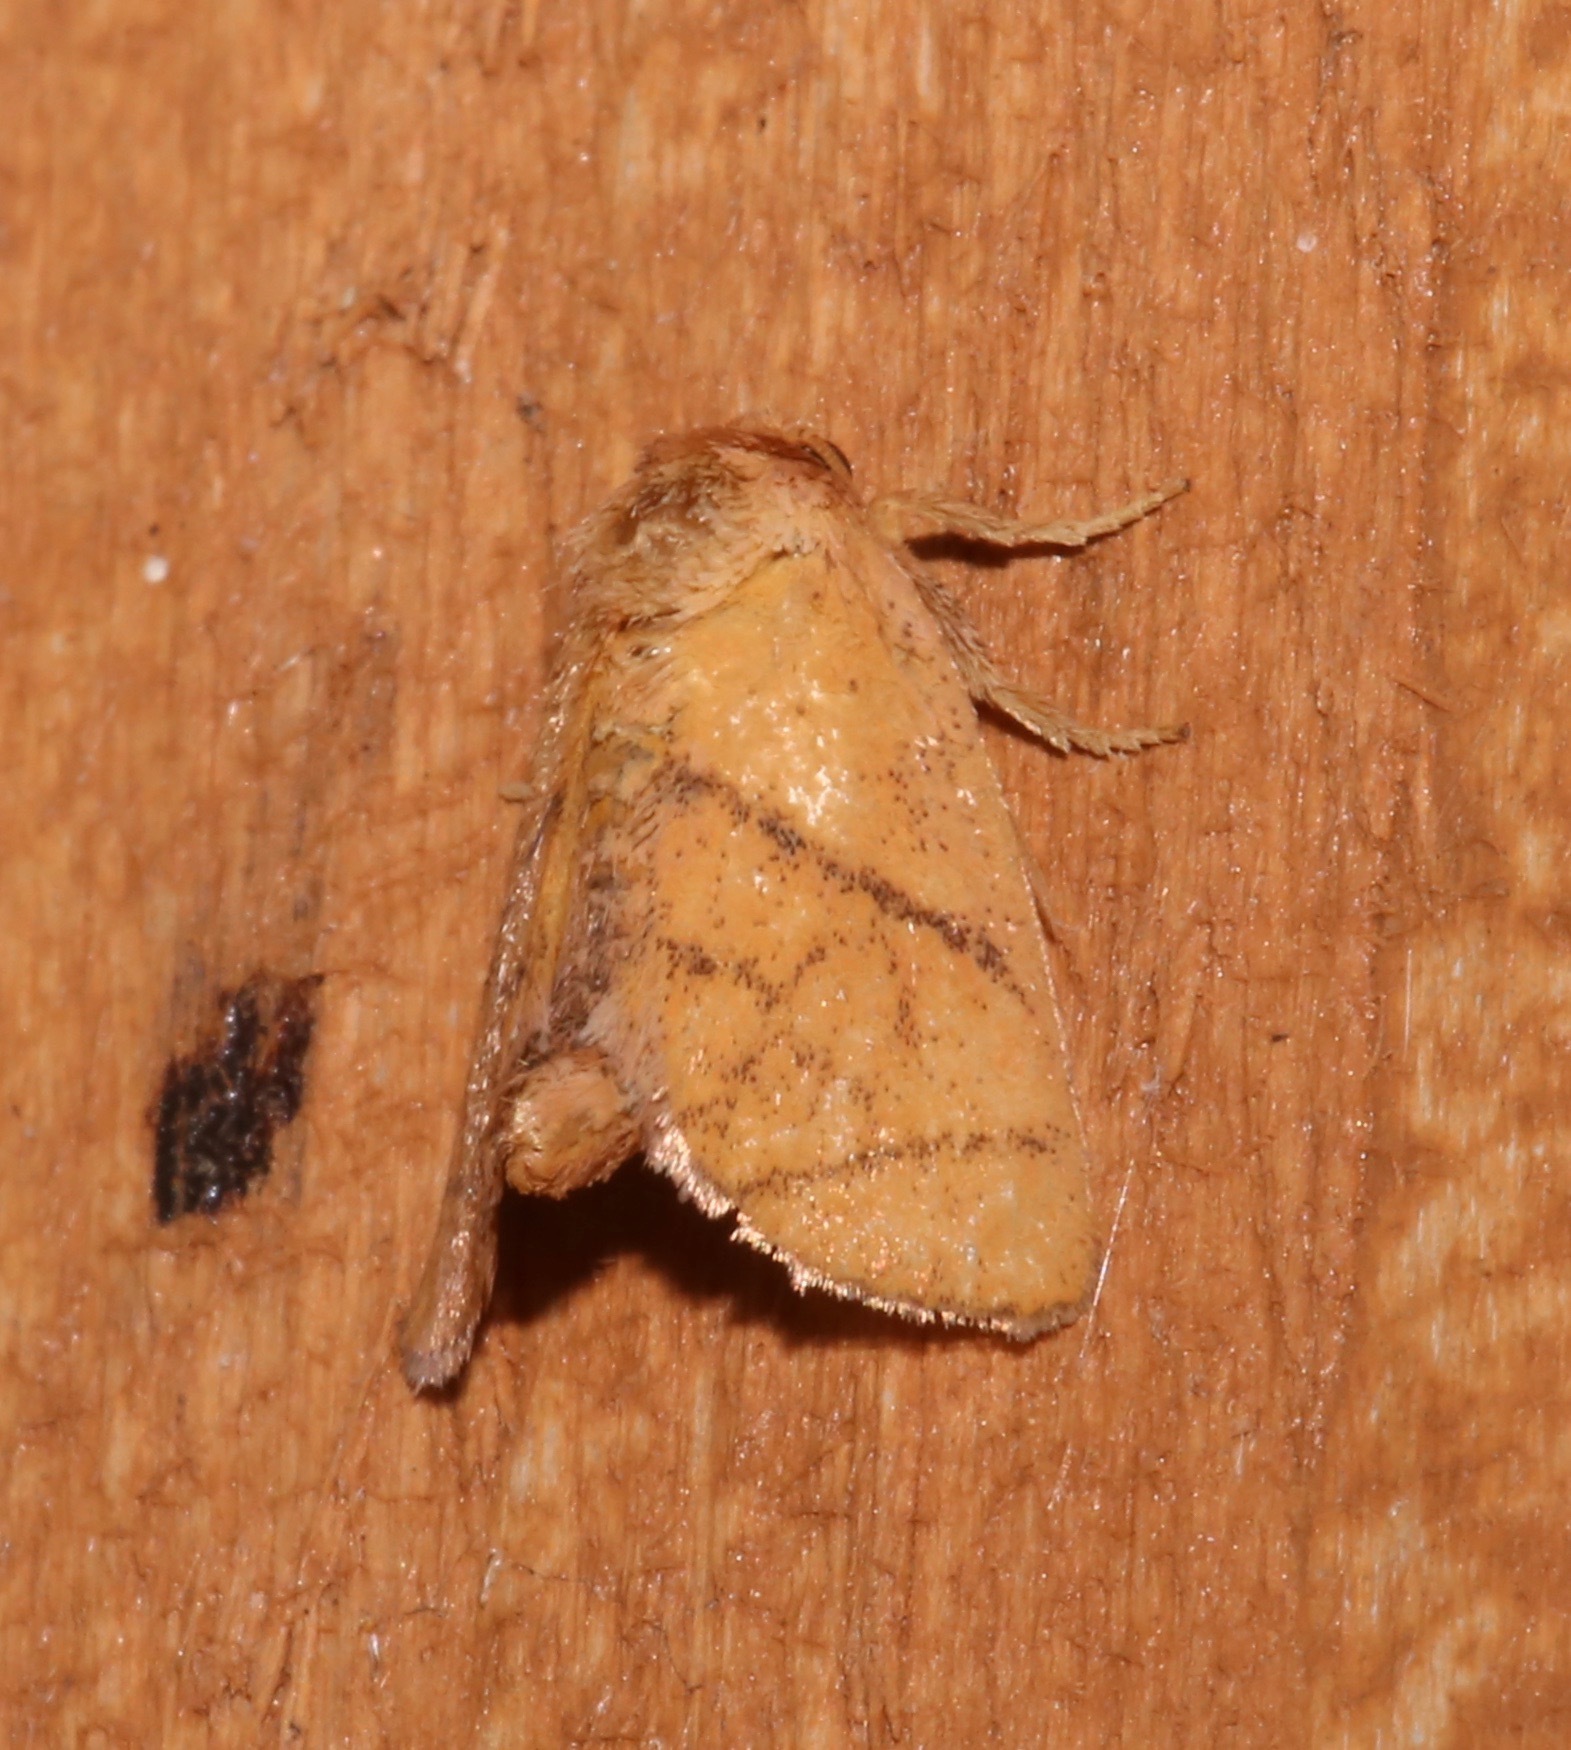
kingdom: Animalia
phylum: Arthropoda
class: Insecta
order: Lepidoptera
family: Limacodidae
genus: Apoda
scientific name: Apoda y-inversa
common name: Yellow-collared slug moth
